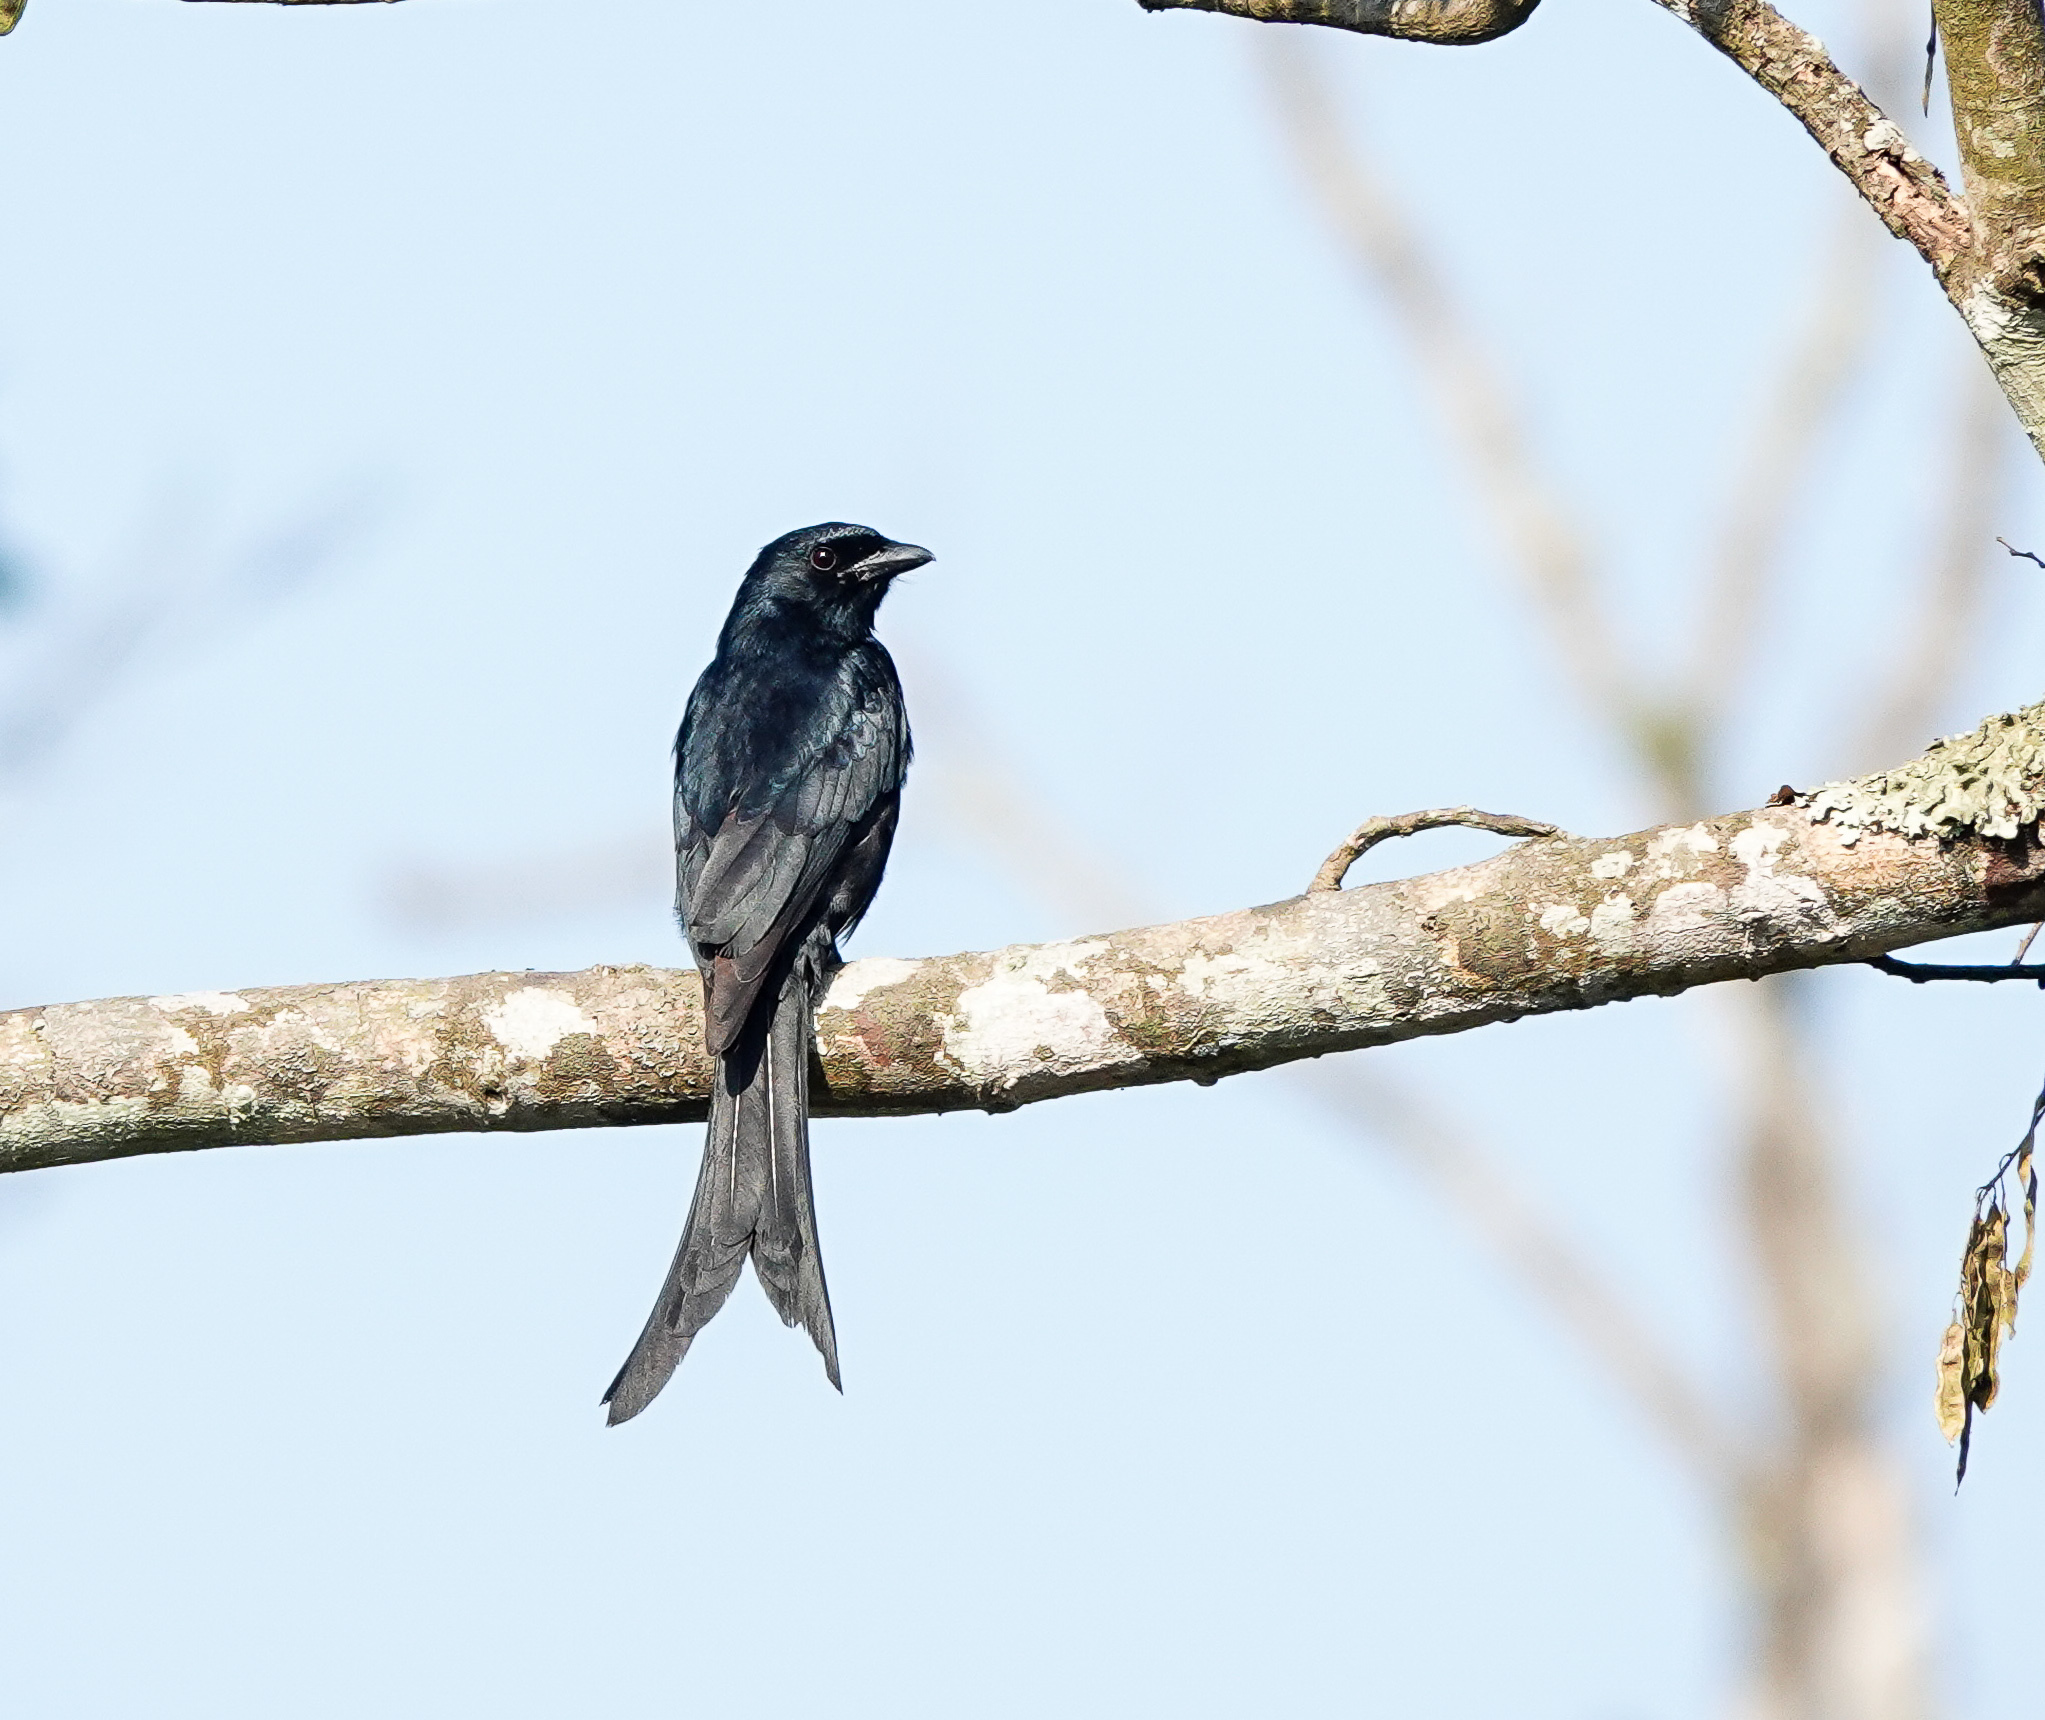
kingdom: Animalia
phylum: Chordata
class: Aves
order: Passeriformes
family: Dicruridae
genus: Dicrurus
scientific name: Dicrurus macrocercus
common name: Black drongo
